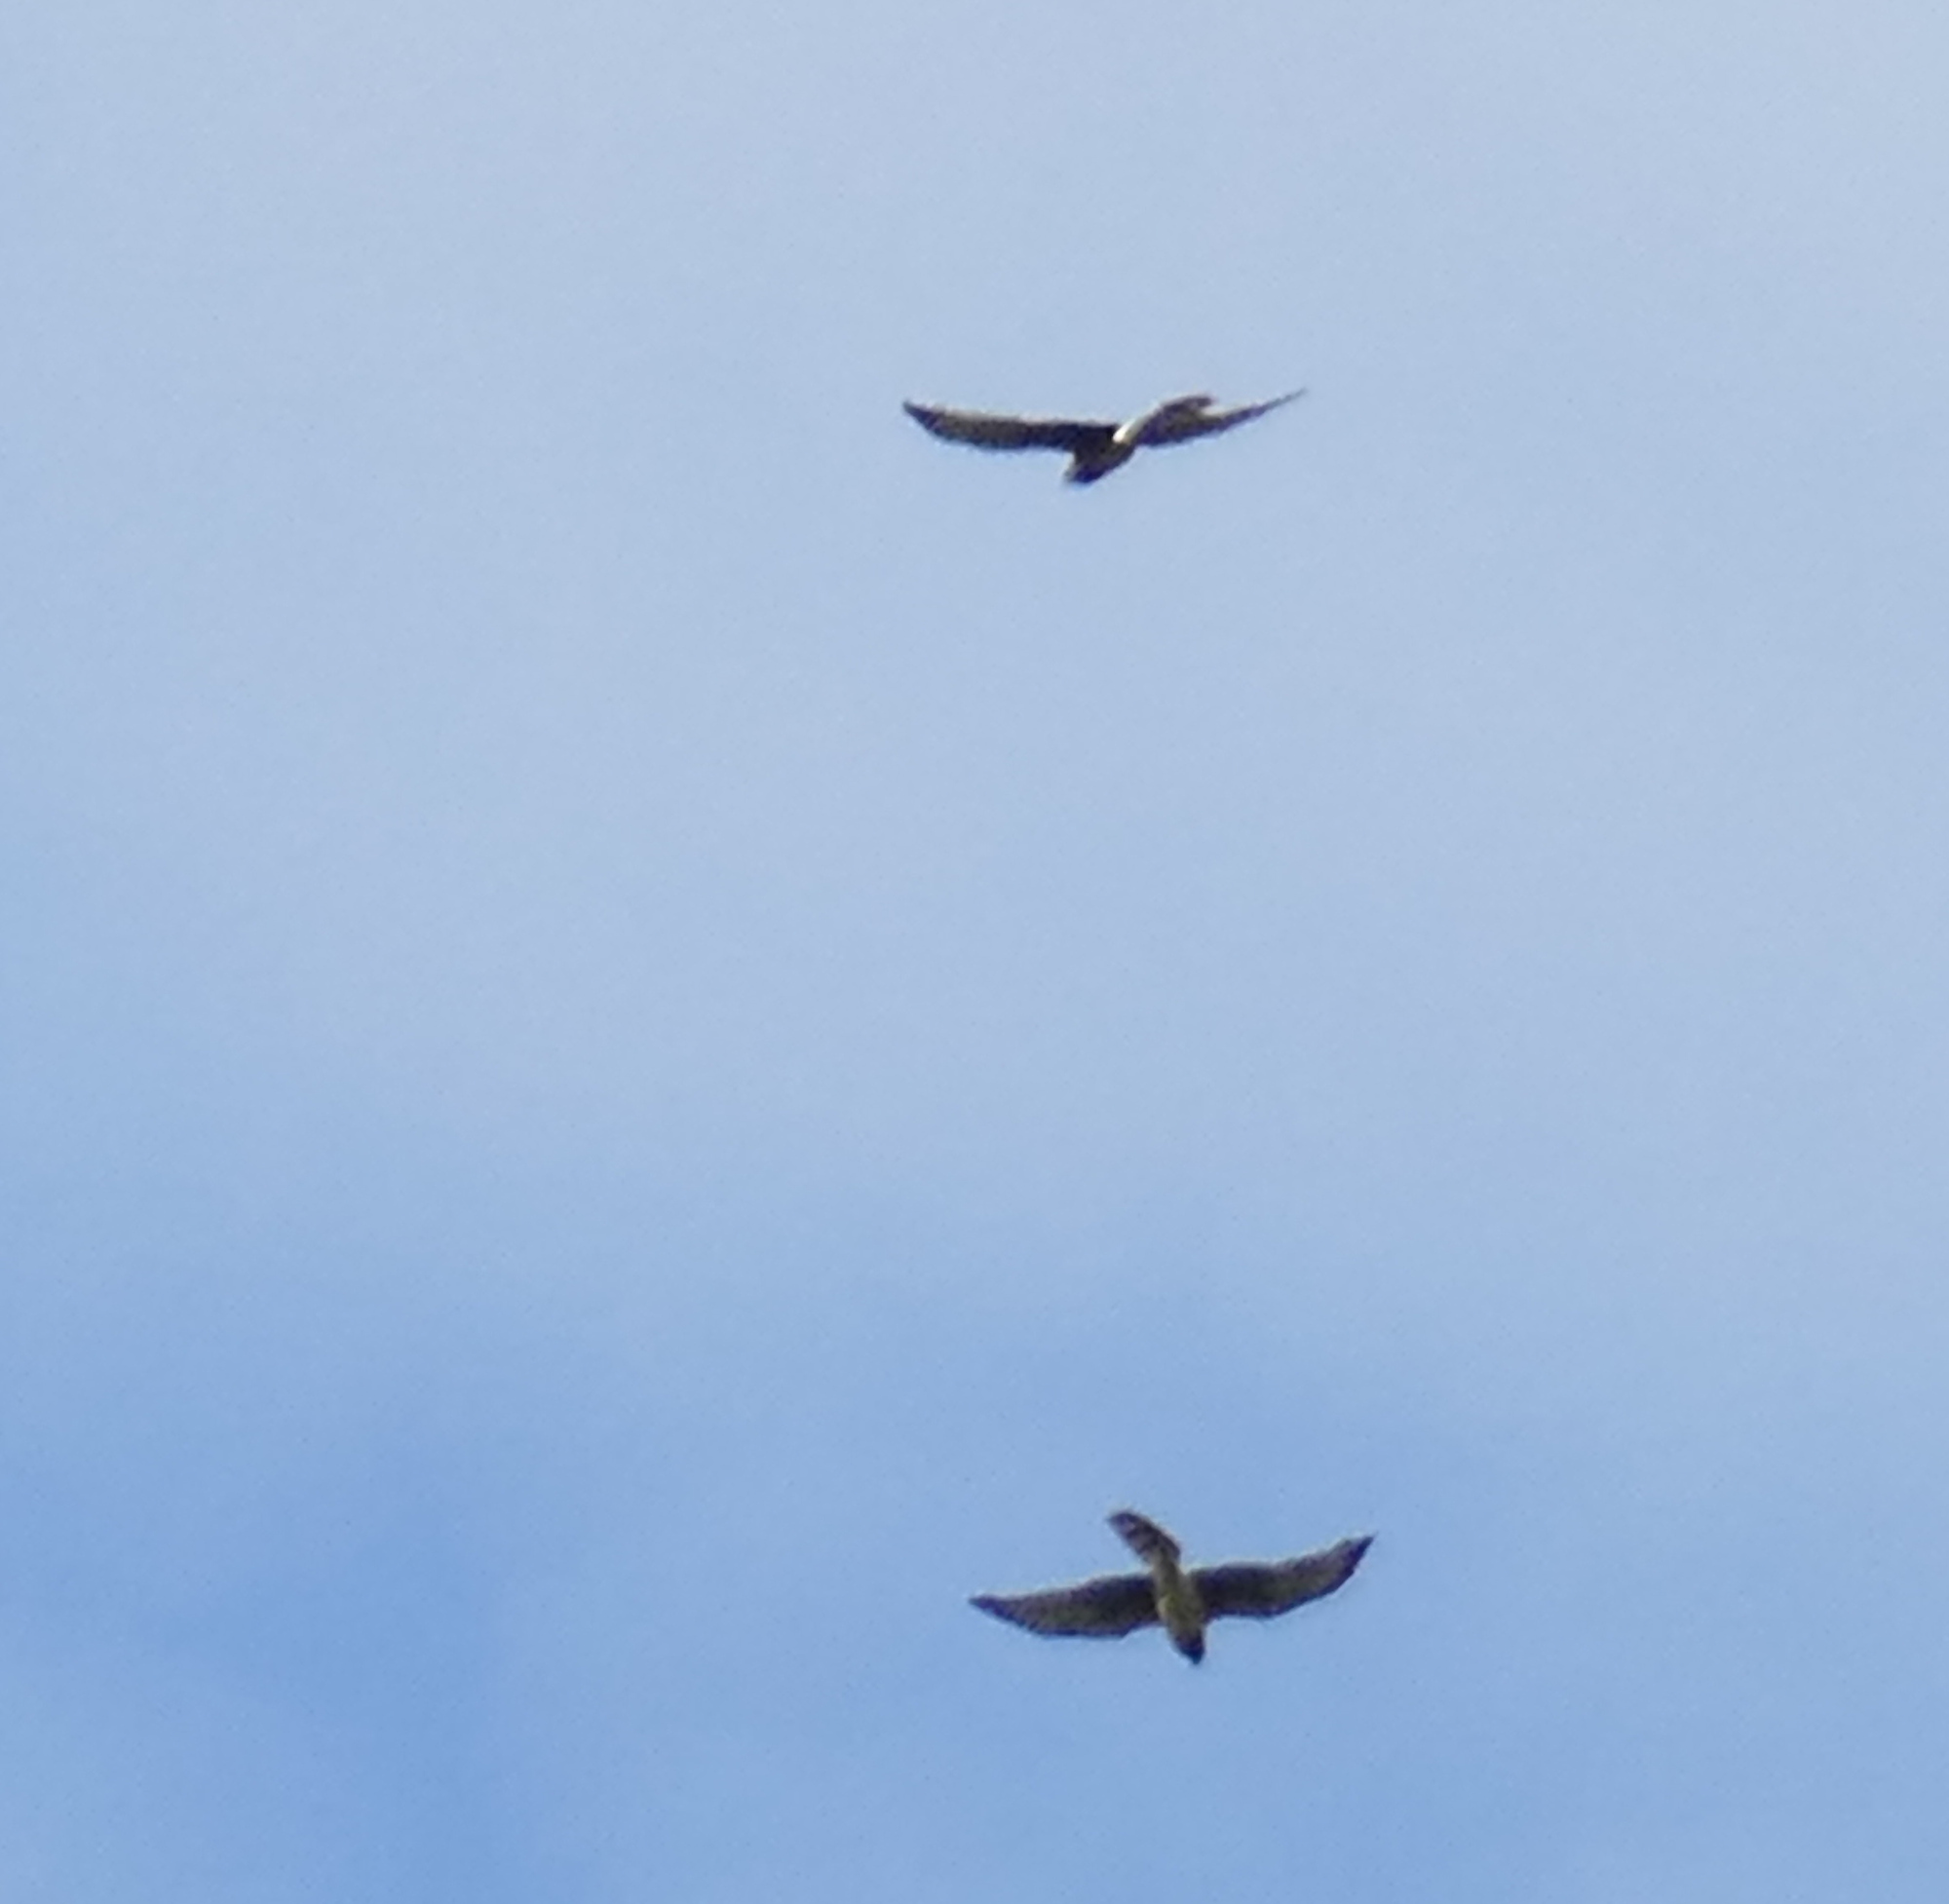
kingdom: Animalia
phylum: Chordata
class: Aves
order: Accipitriformes
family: Accipitridae
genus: Circus
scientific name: Circus cyaneus
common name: Hen harrier
